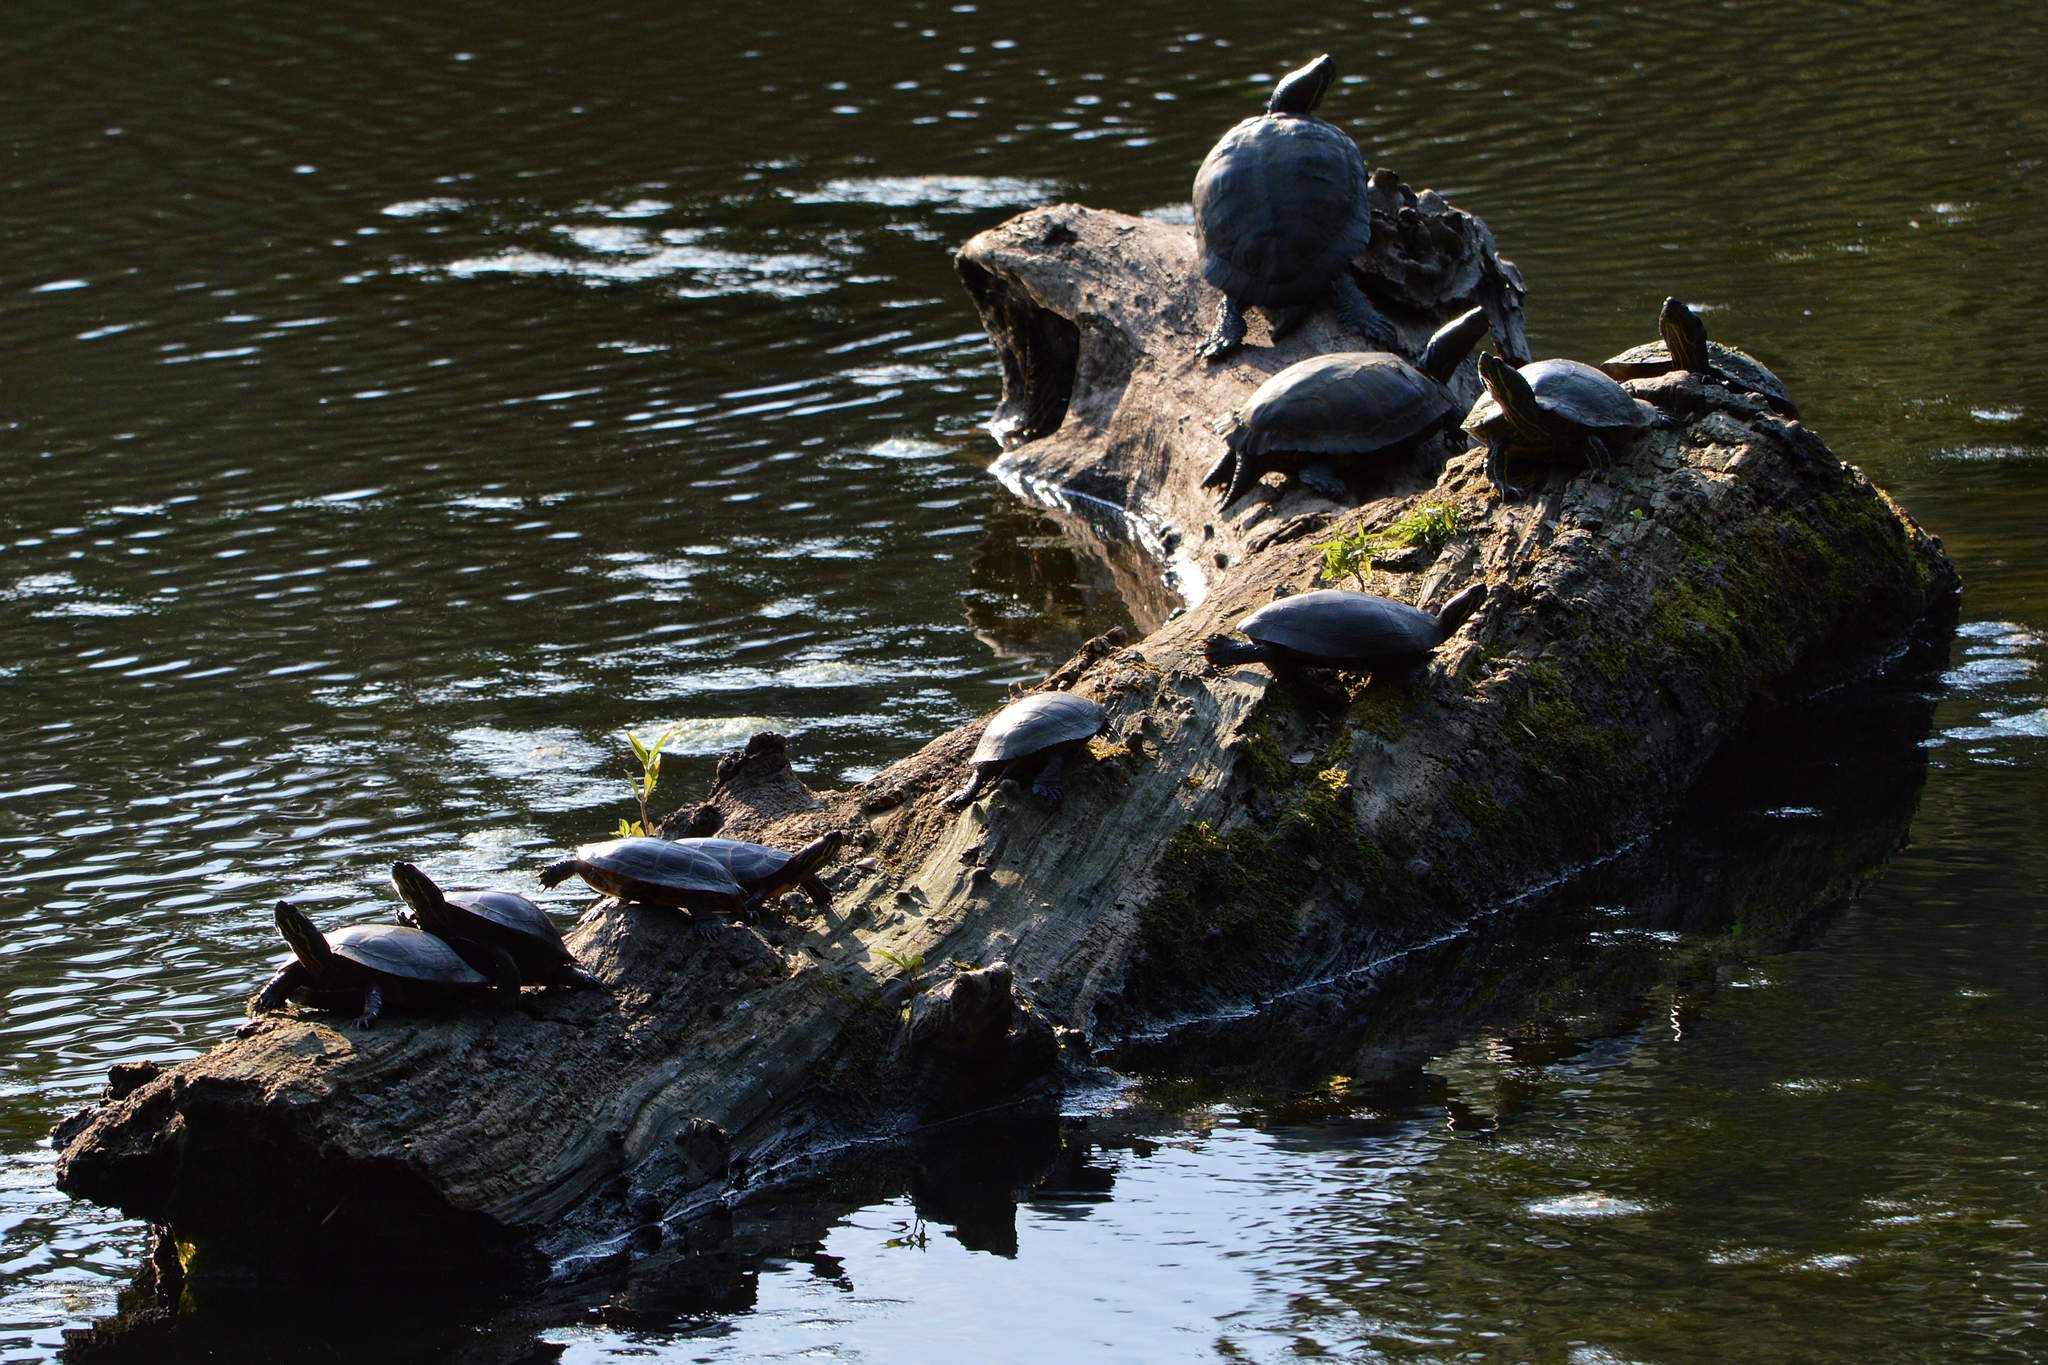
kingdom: Animalia
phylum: Chordata
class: Testudines
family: Emydidae
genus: Chrysemys
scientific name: Chrysemys picta
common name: Painted turtle
